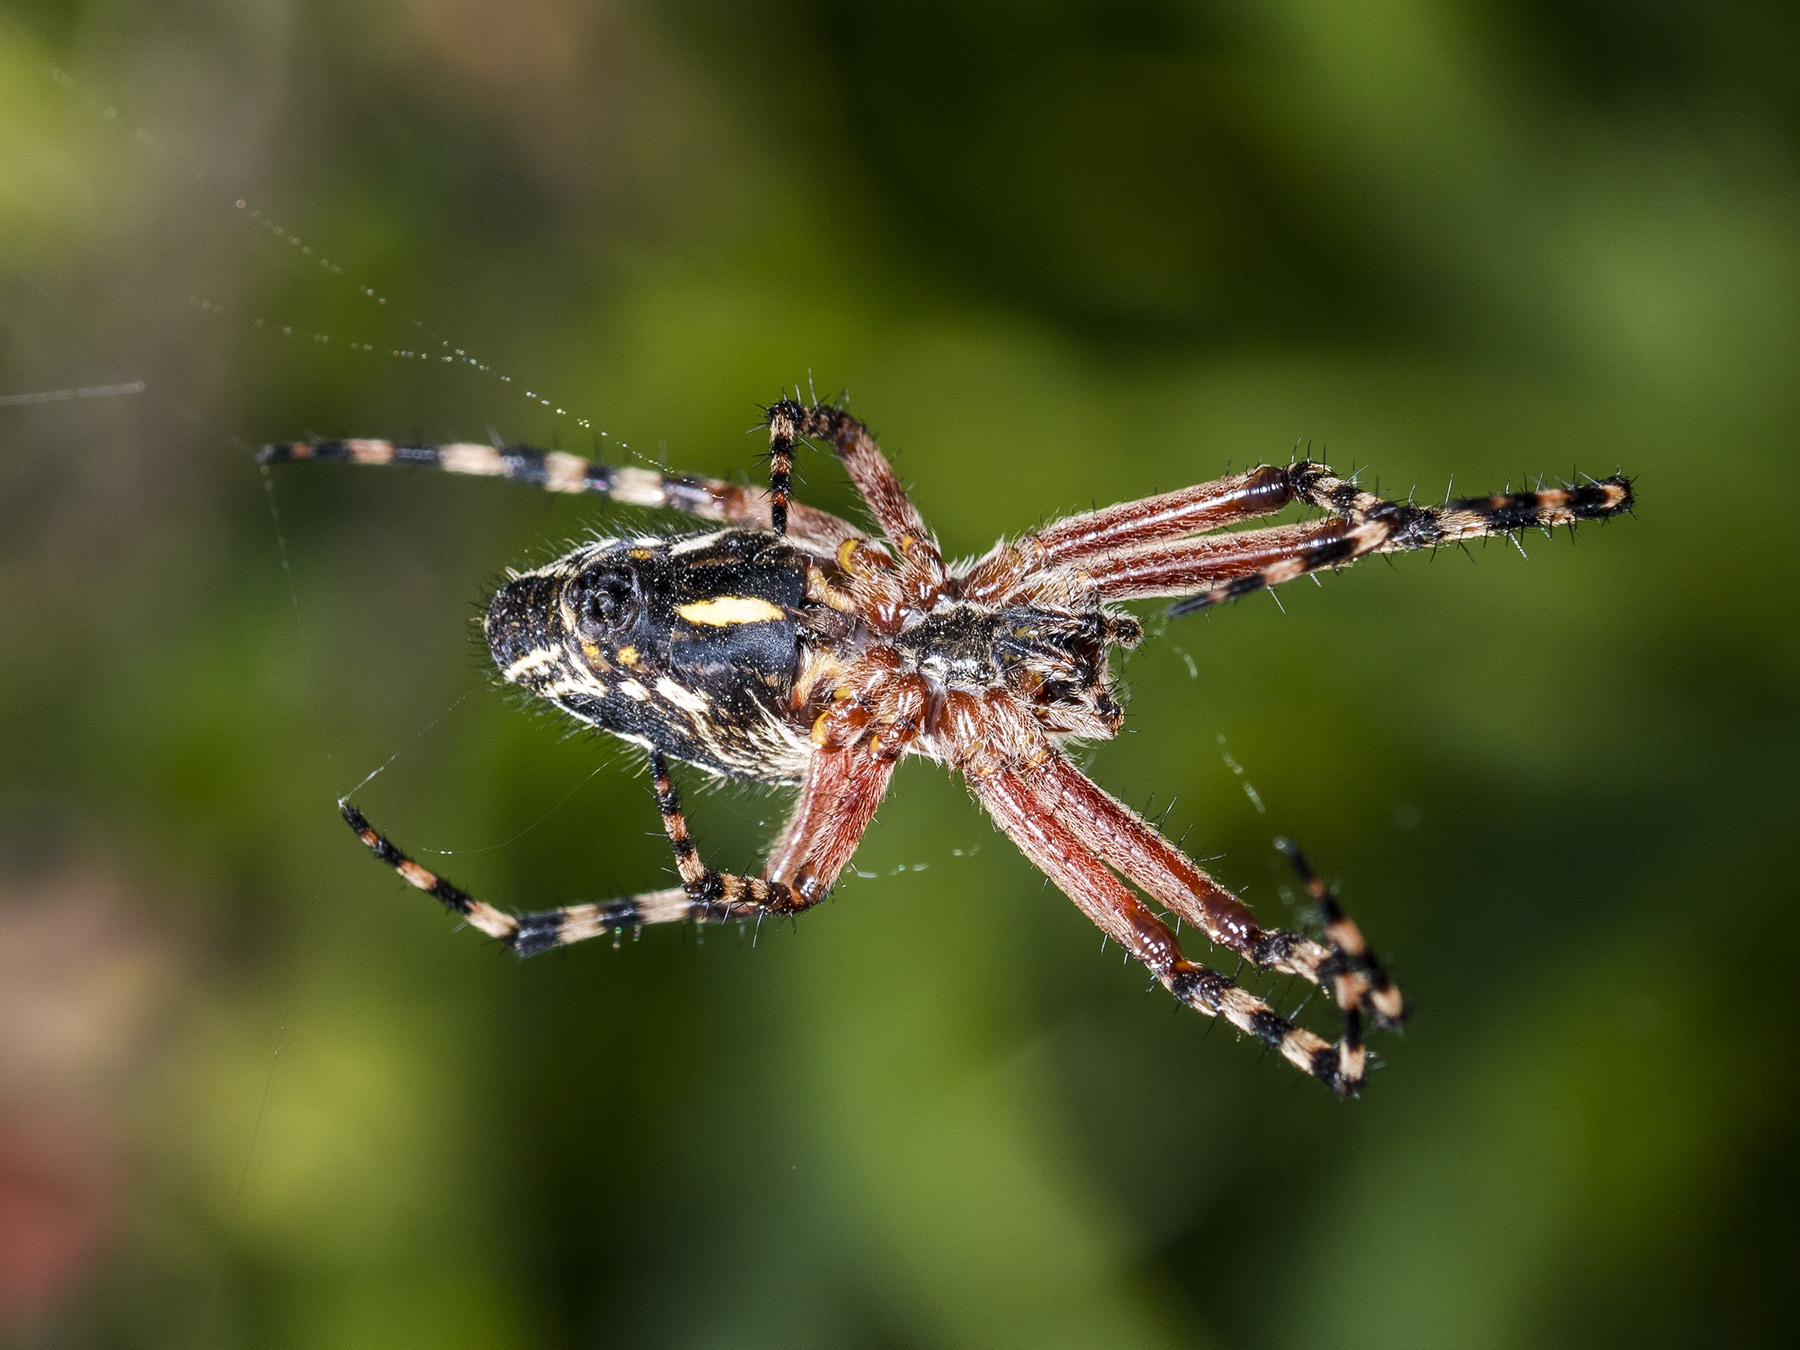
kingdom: Animalia
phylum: Arthropoda
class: Arachnida
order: Araneae
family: Araneidae
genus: Aculepeira
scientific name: Aculepeira packardi
